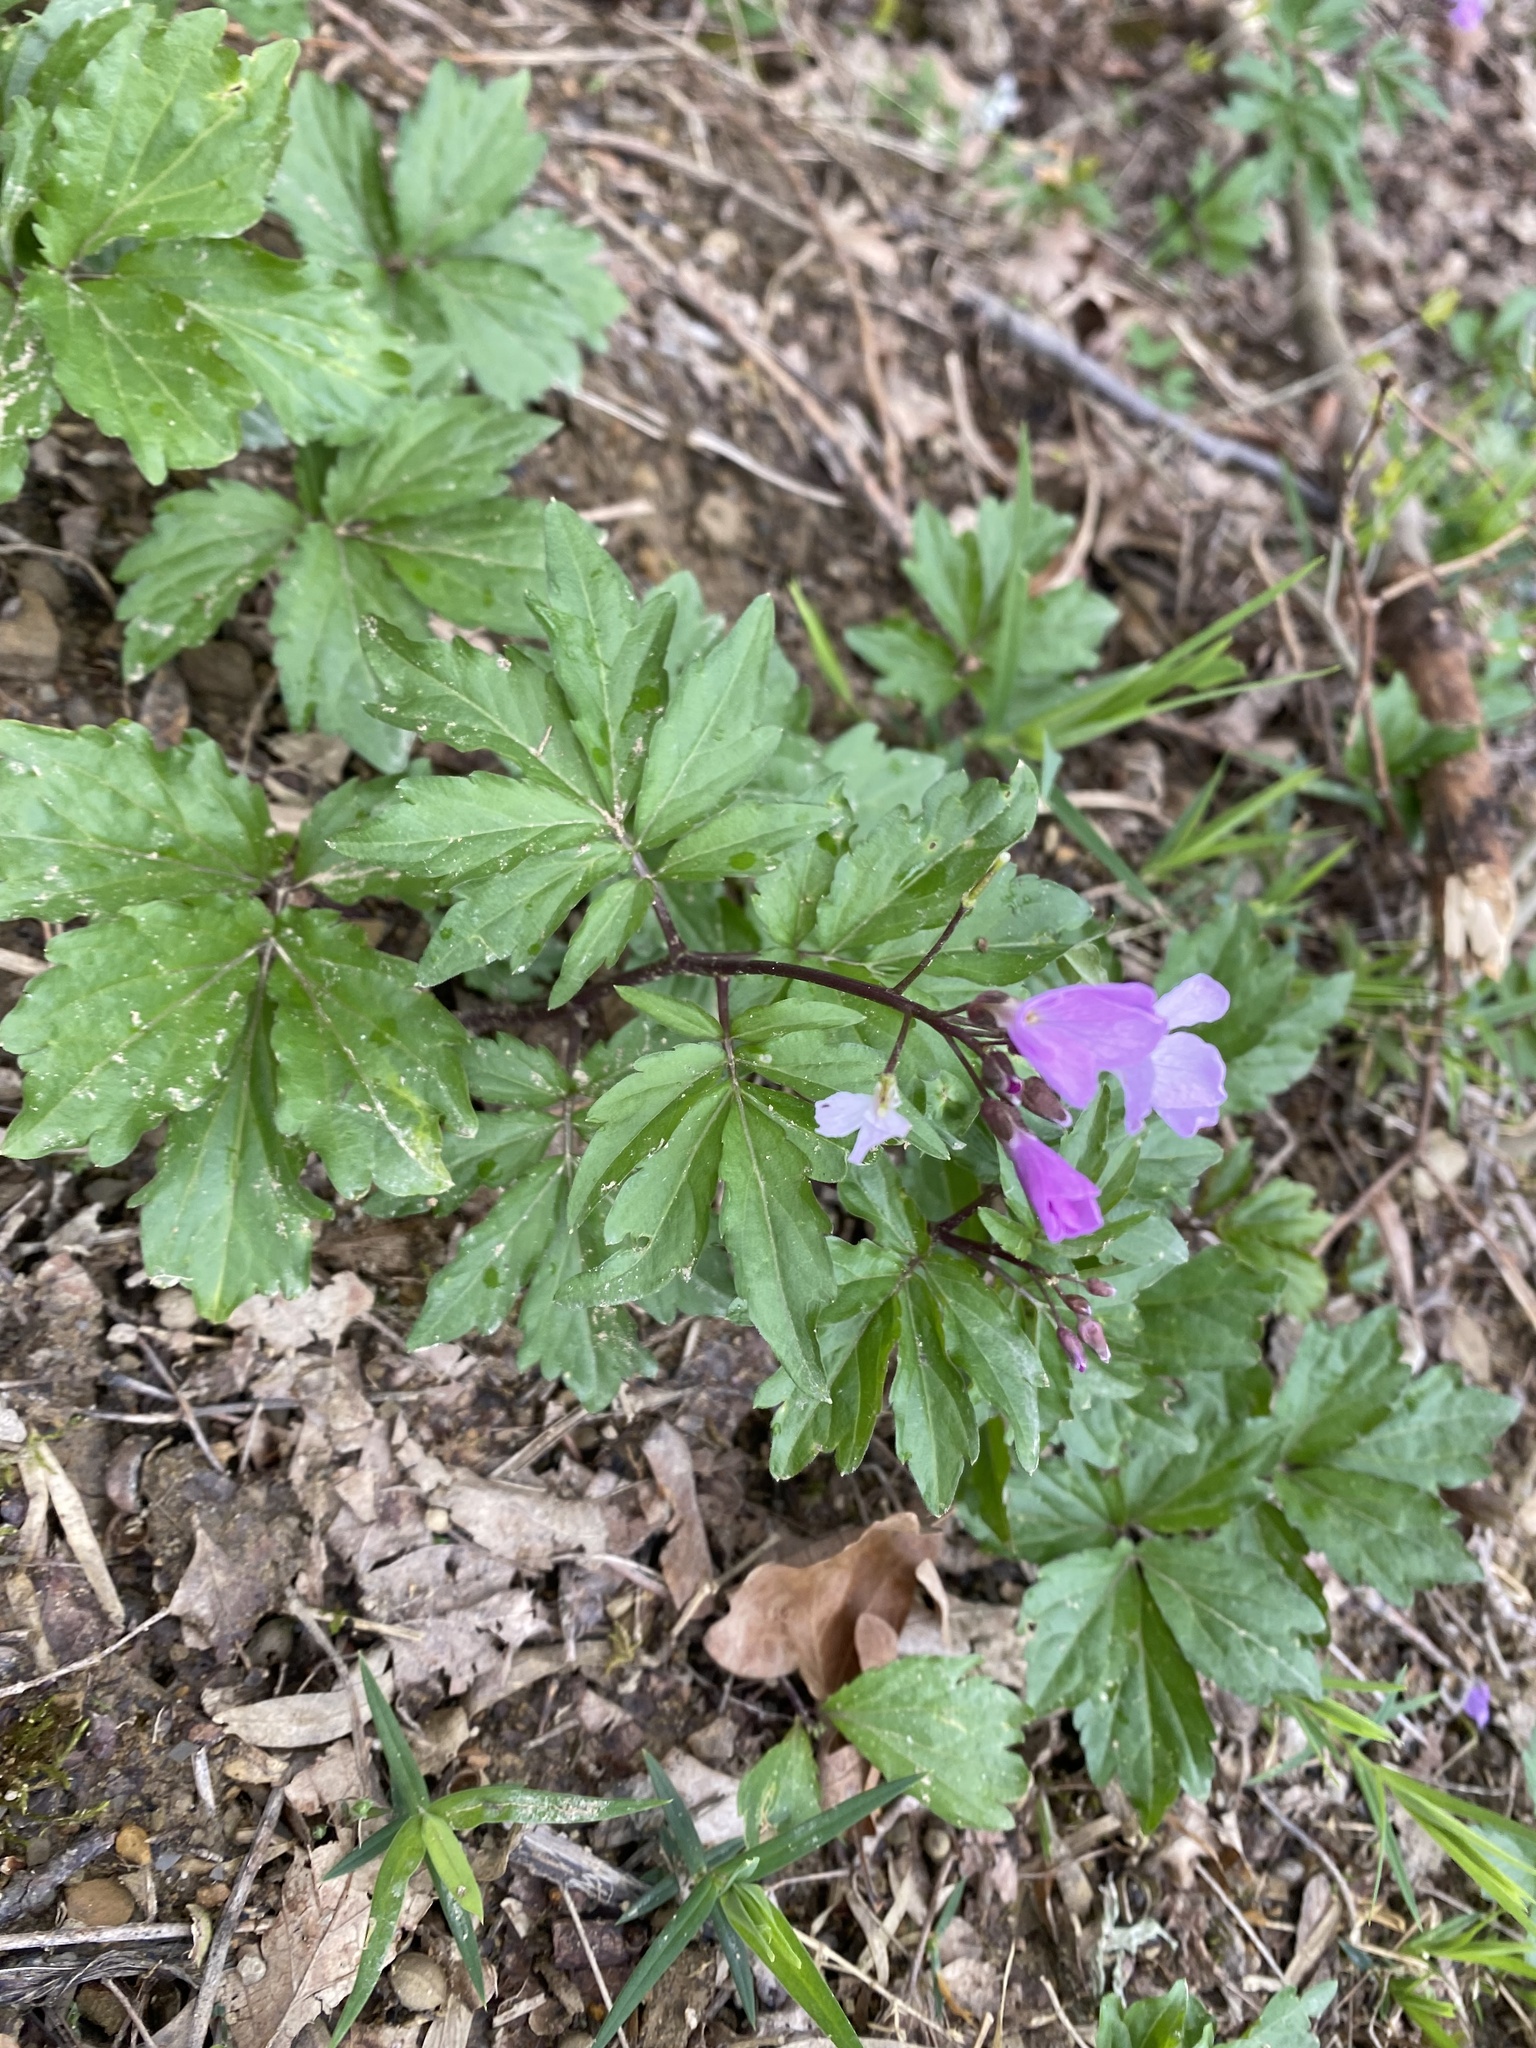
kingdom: Plantae
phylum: Tracheophyta
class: Magnoliopsida
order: Brassicales
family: Brassicaceae
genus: Cardamine
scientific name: Cardamine quinquefolia
